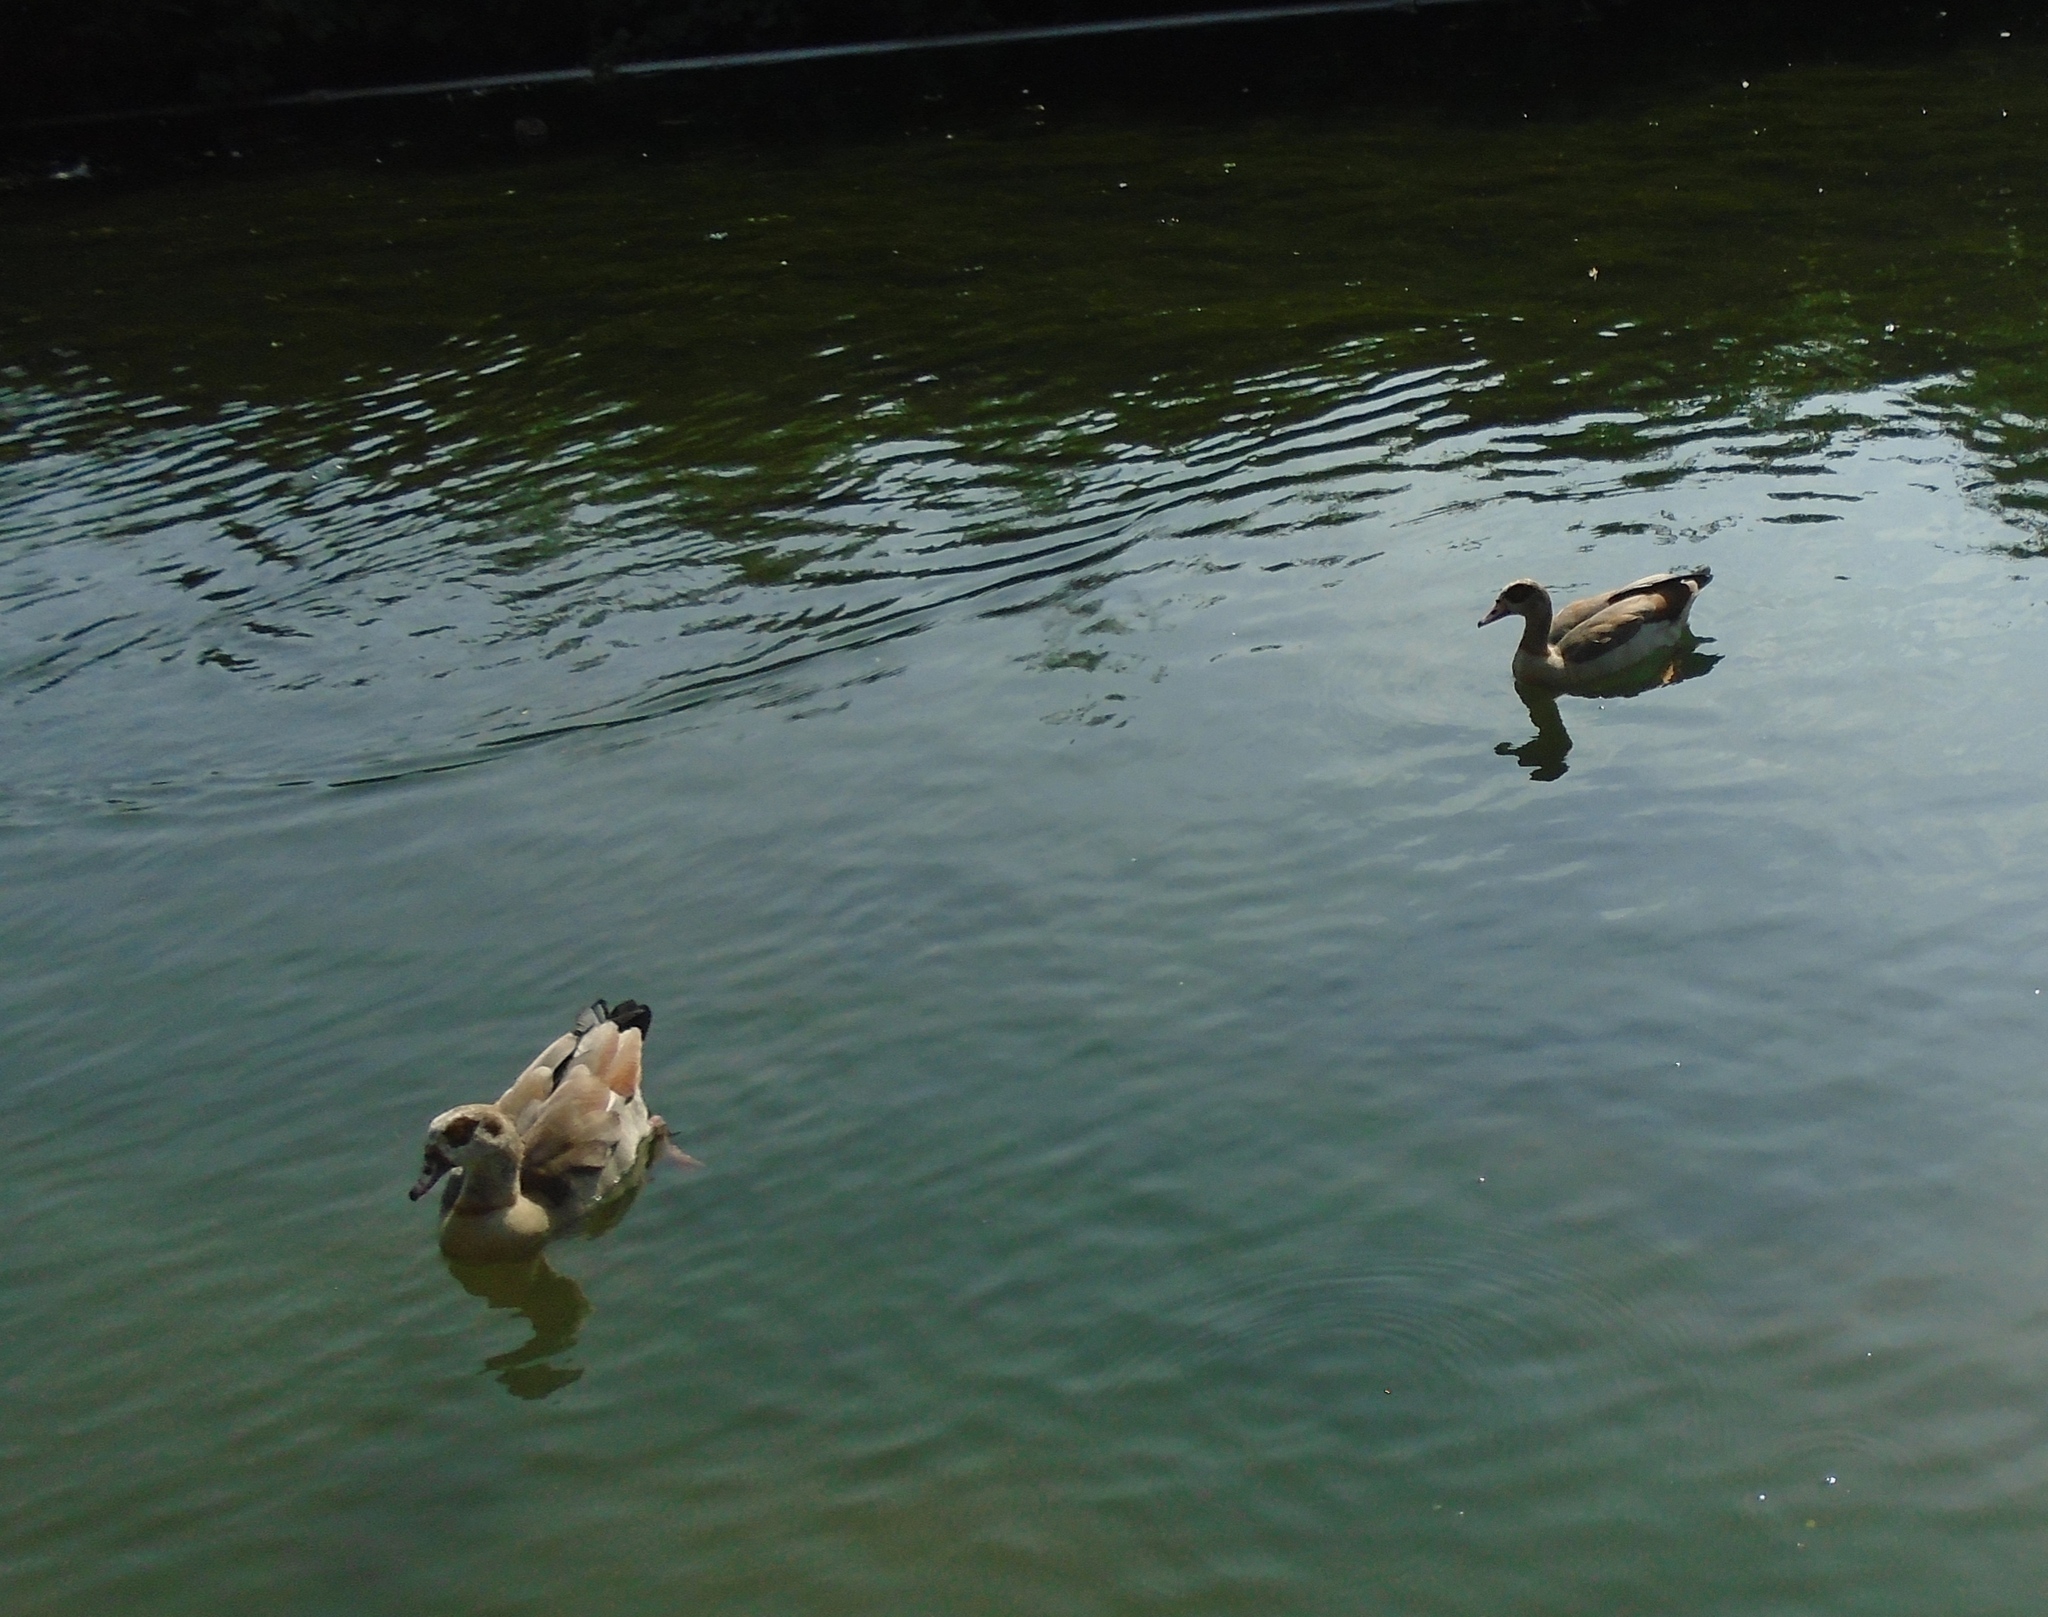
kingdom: Animalia
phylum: Chordata
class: Aves
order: Anseriformes
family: Anatidae
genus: Alopochen
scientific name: Alopochen aegyptiaca
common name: Egyptian goose
